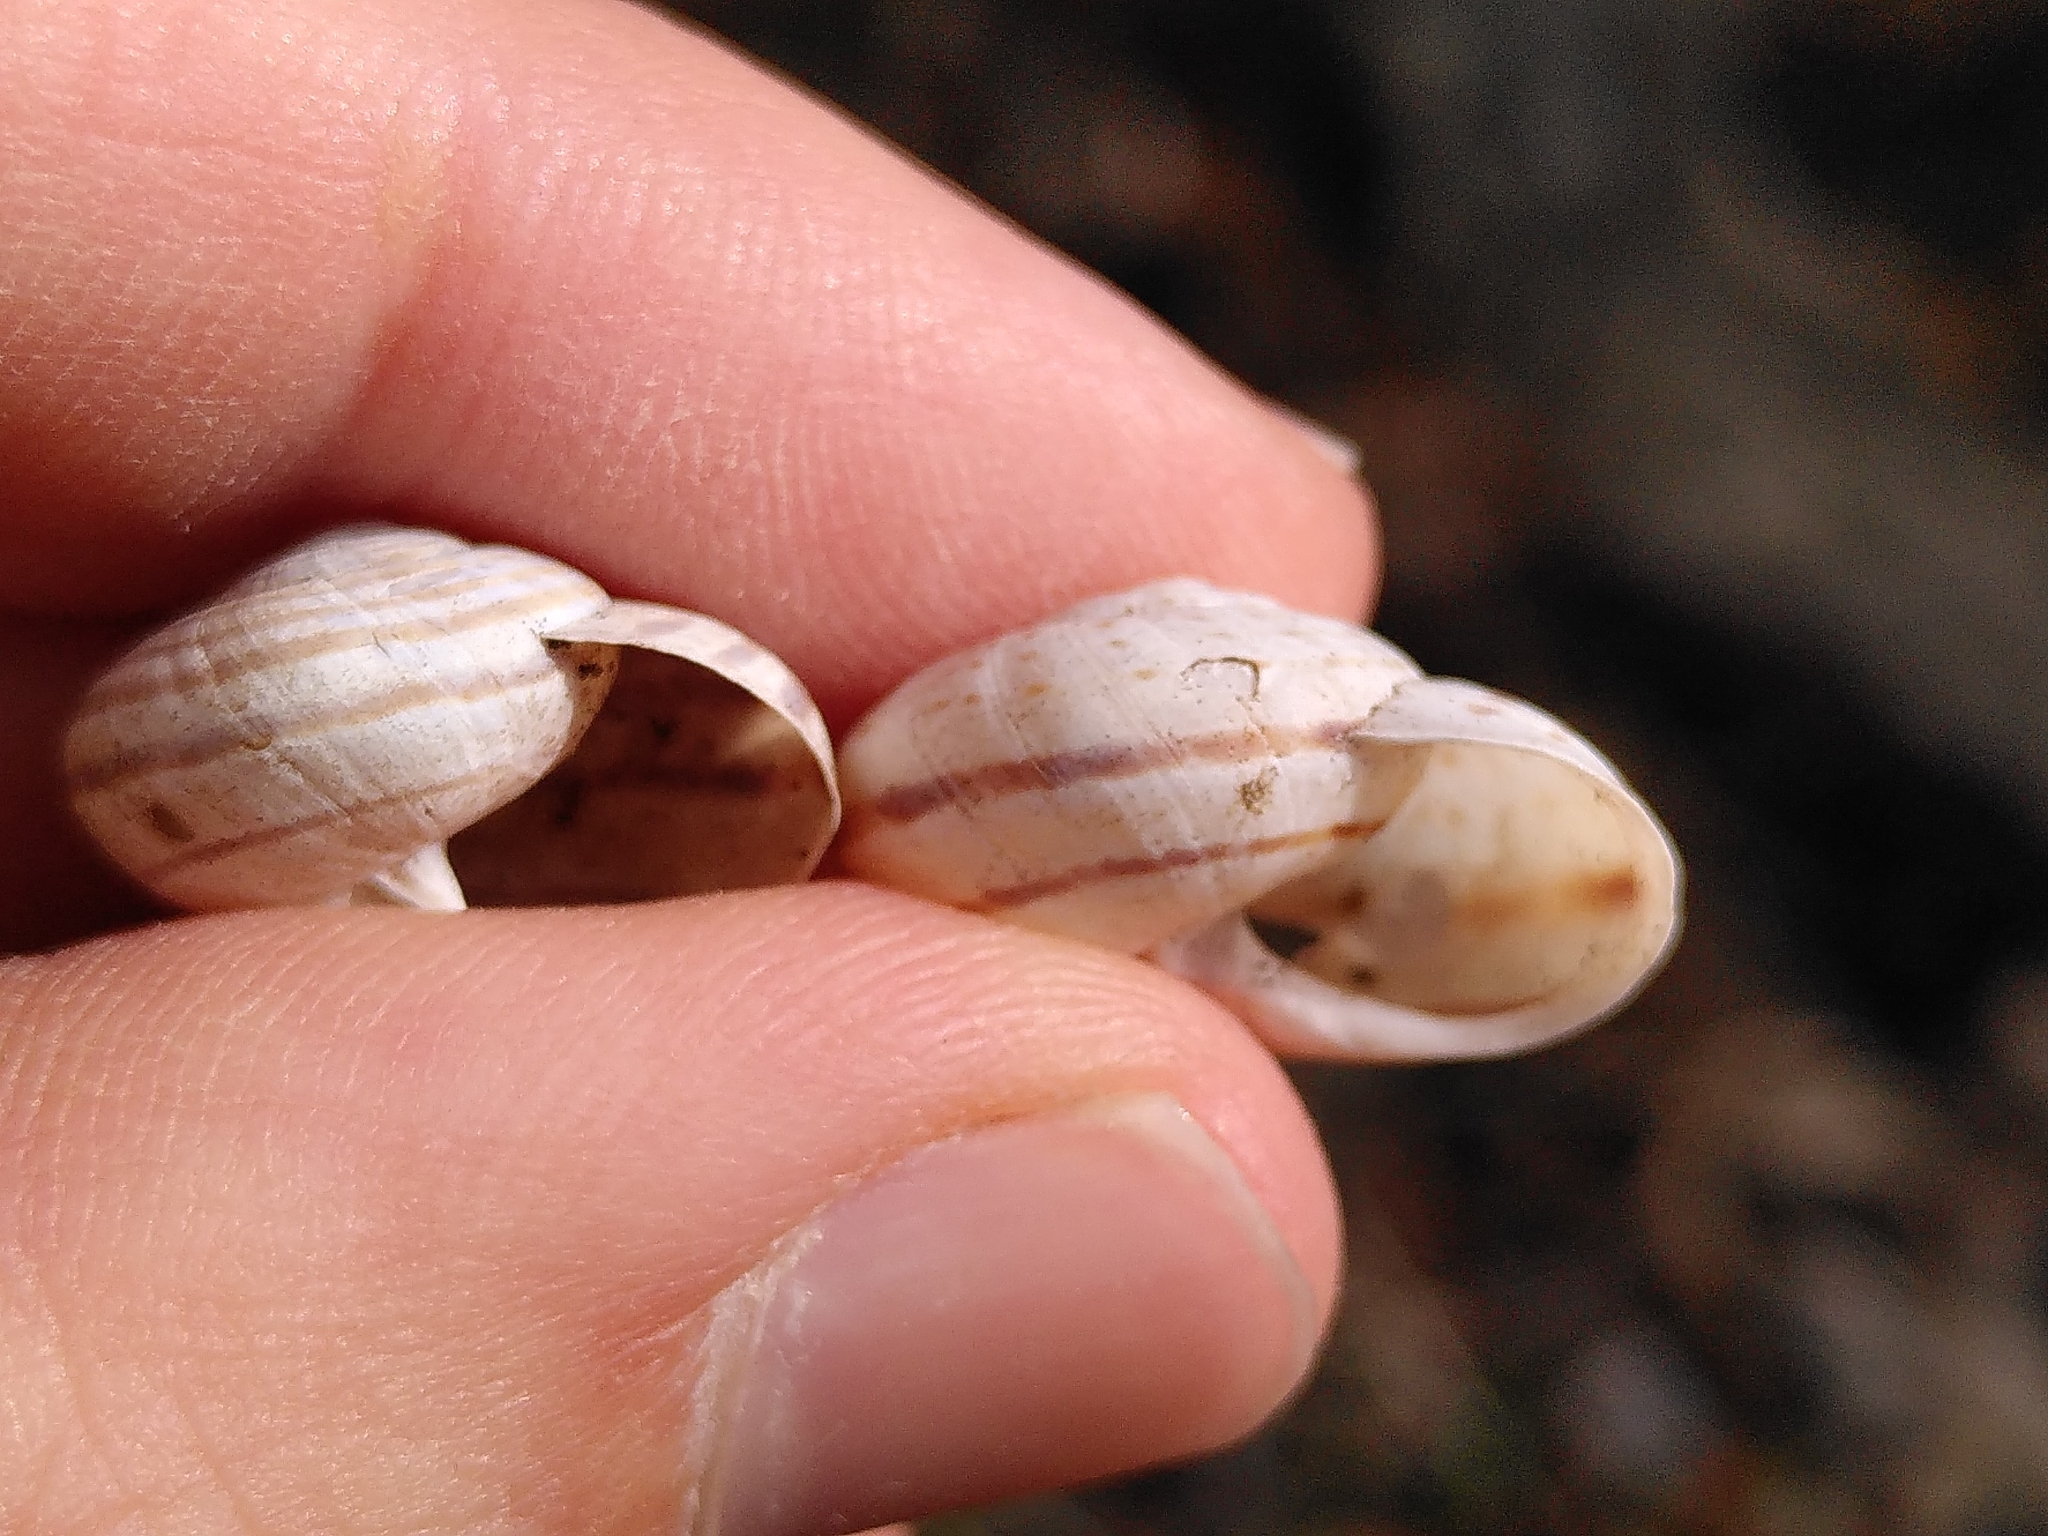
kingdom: Animalia
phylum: Mollusca
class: Gastropoda
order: Stylommatophora
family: Helicidae
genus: Pseudotachea
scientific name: Pseudotachea splendida
